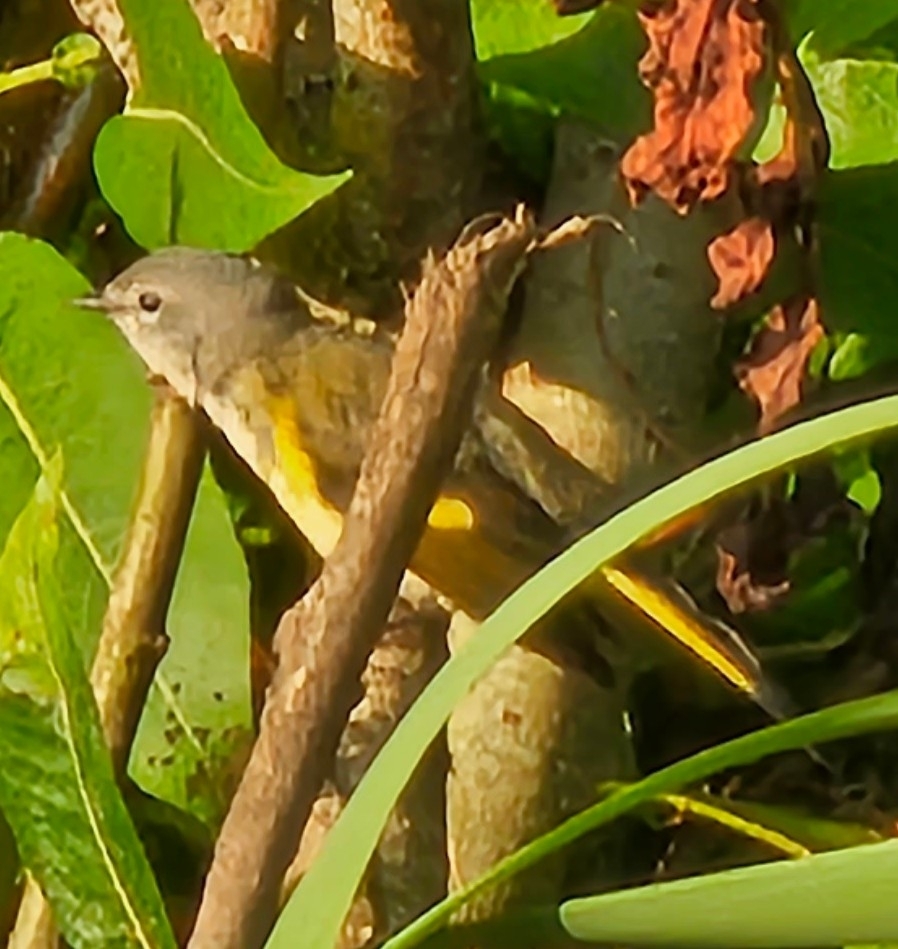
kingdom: Animalia
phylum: Chordata
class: Aves
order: Passeriformes
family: Parulidae
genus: Setophaga
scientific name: Setophaga ruticilla
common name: American redstart
